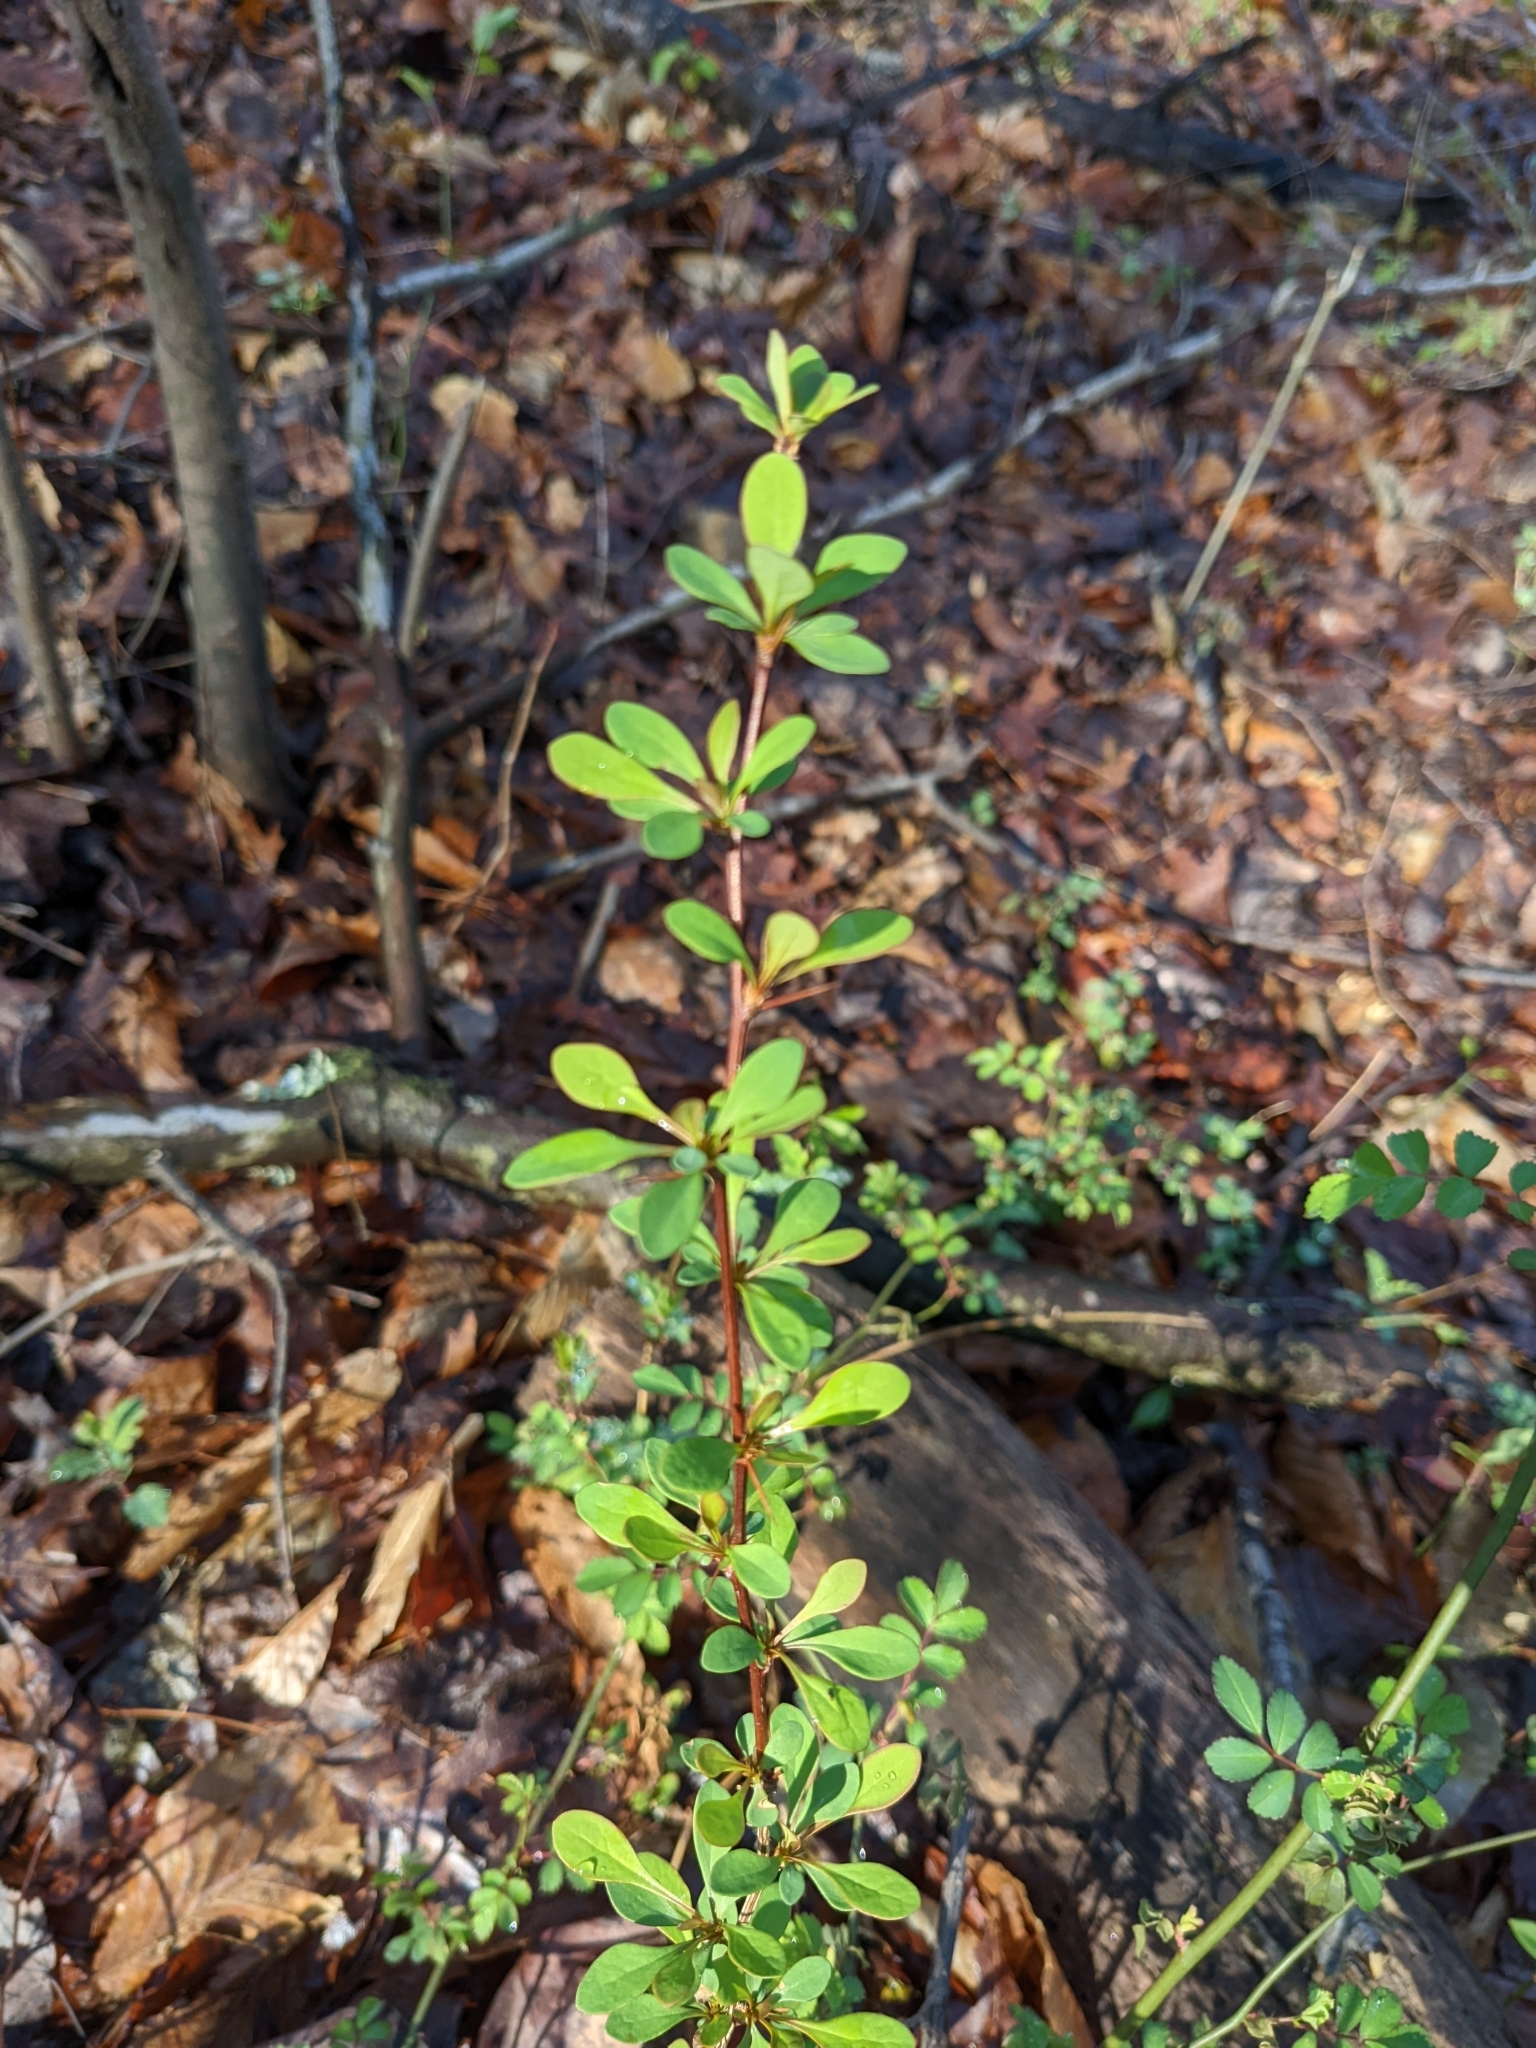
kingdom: Plantae
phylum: Tracheophyta
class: Magnoliopsida
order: Ranunculales
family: Berberidaceae
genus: Berberis
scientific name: Berberis thunbergii
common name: Japanese barberry
